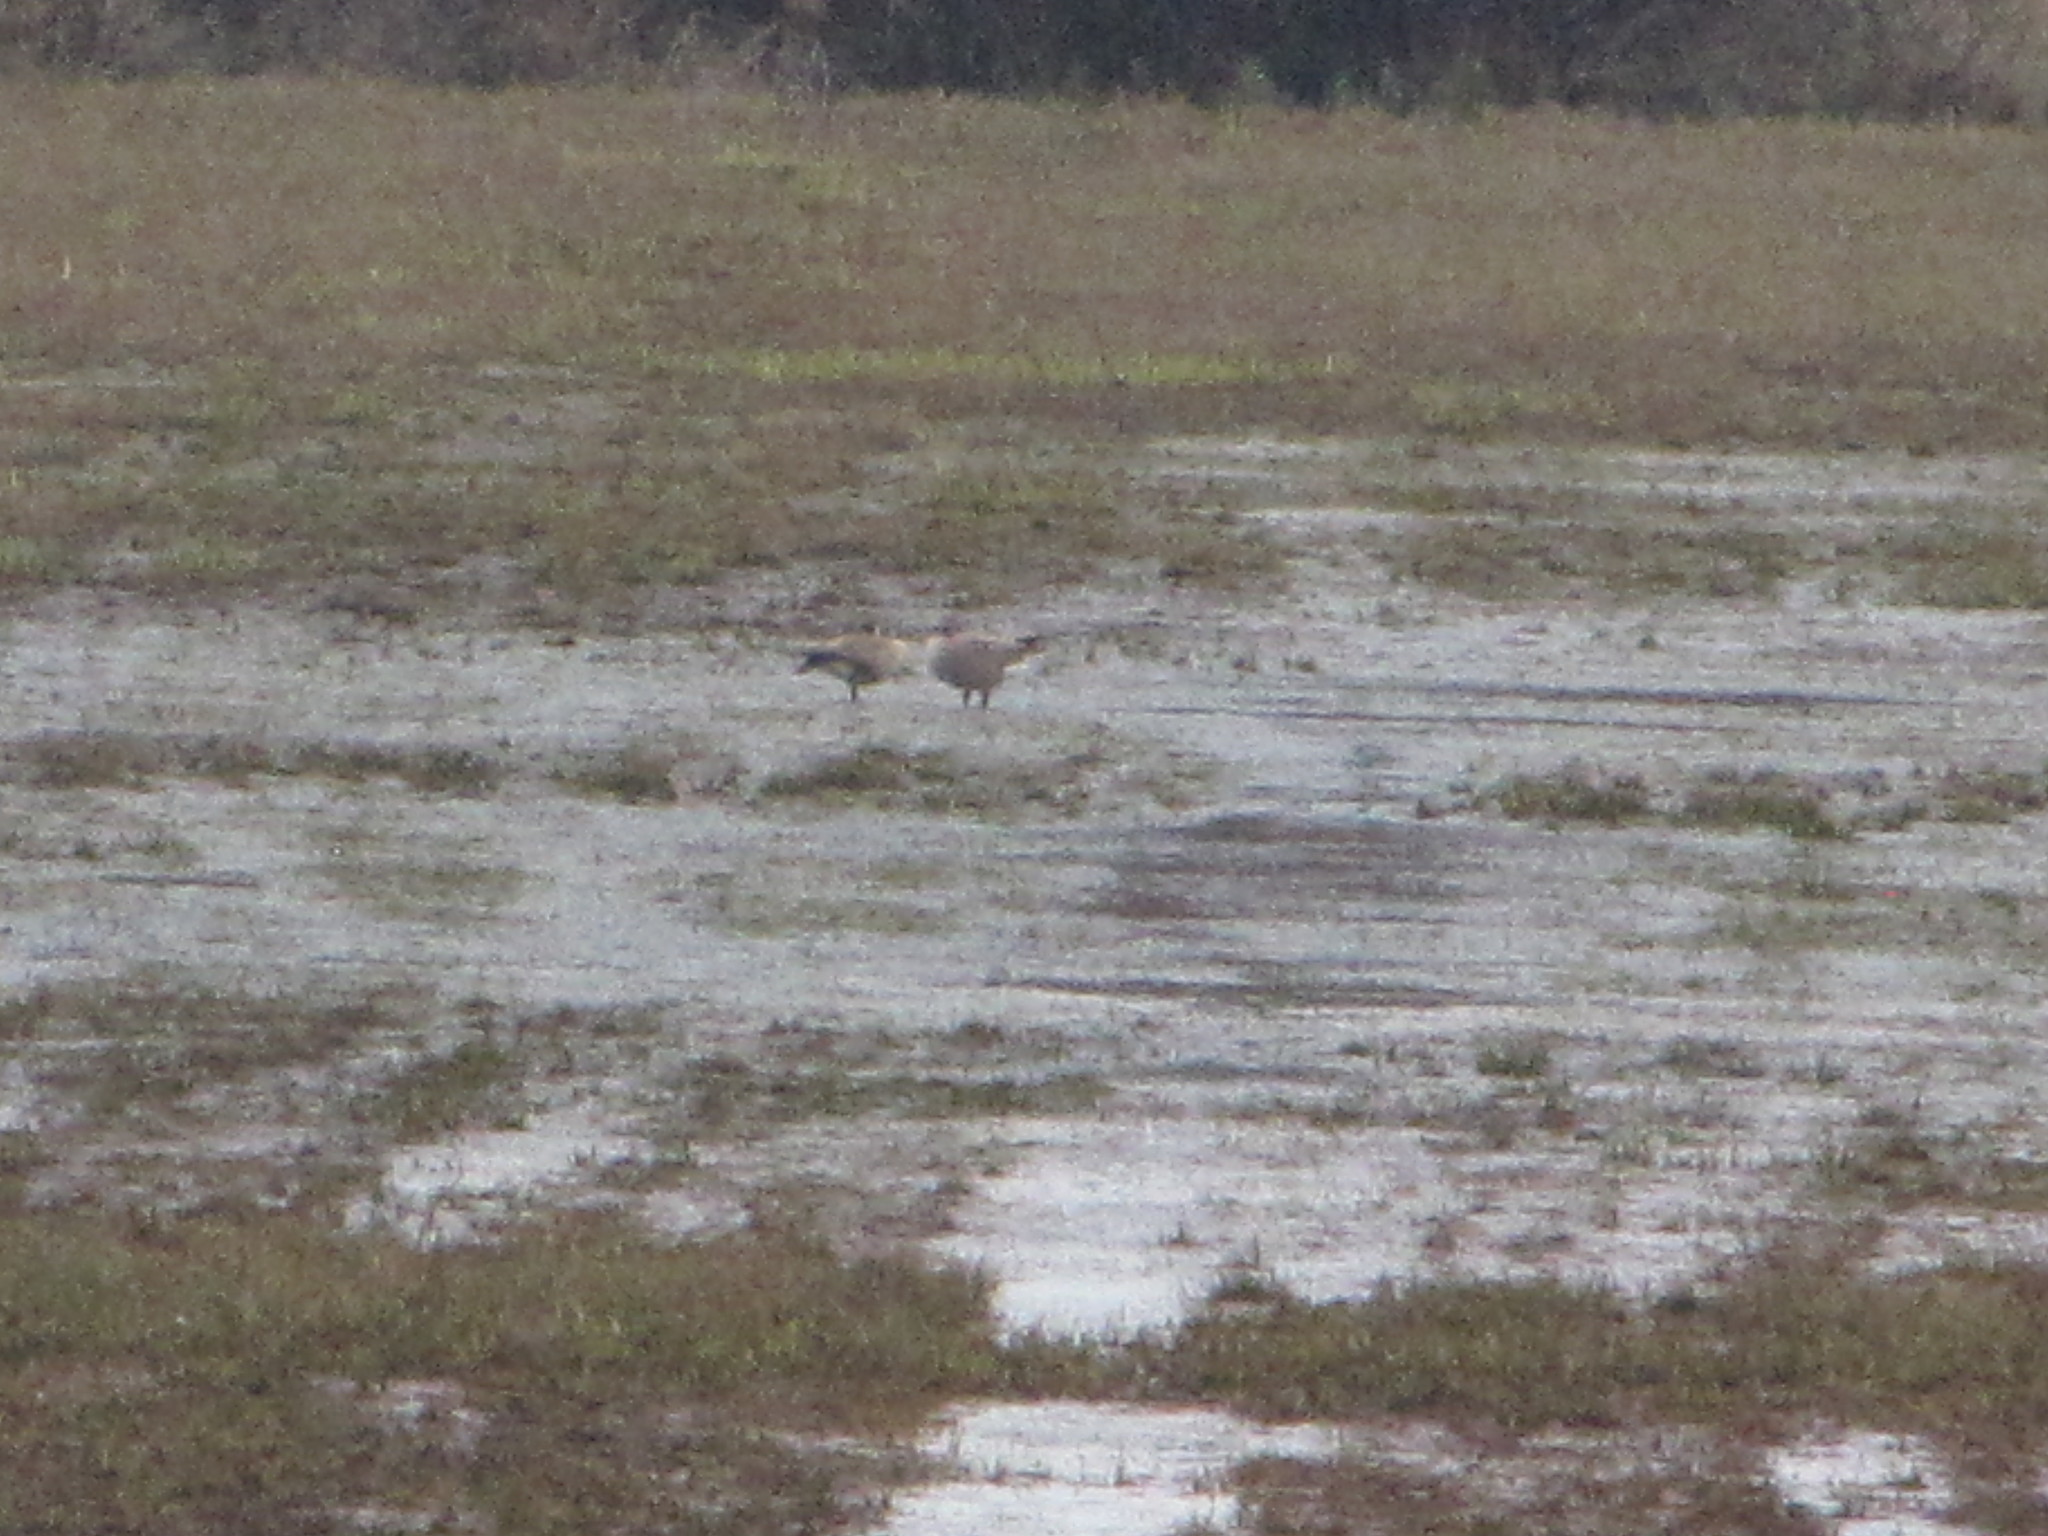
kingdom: Animalia
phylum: Chordata
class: Aves
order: Anseriformes
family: Anatidae
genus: Branta
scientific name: Branta canadensis
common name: Canada goose
